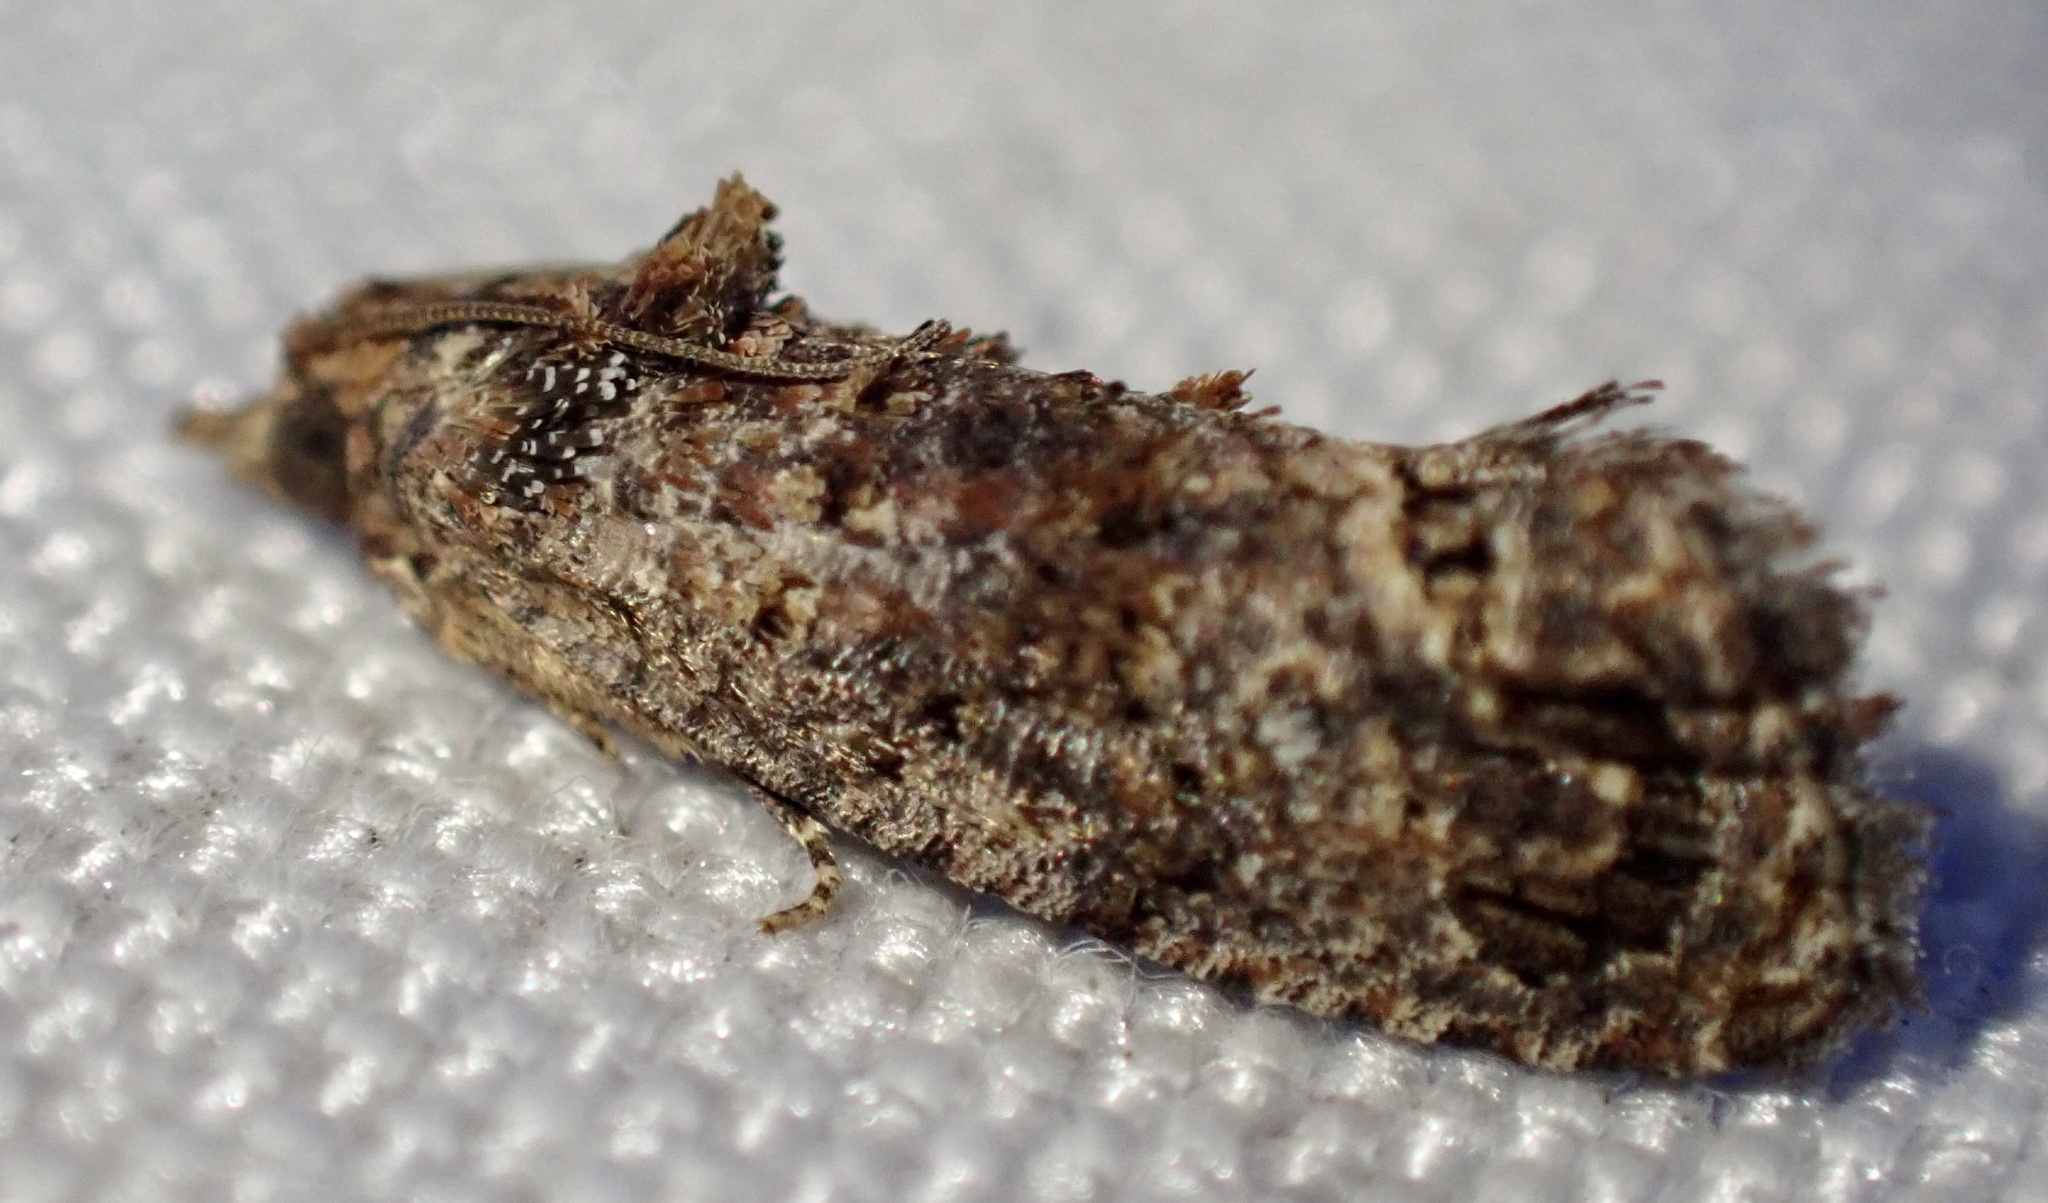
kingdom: Animalia
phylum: Arthropoda
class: Insecta
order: Lepidoptera
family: Tortricidae
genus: Thaumatotibia
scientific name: Thaumatotibia leucotreta
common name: False codling moth
